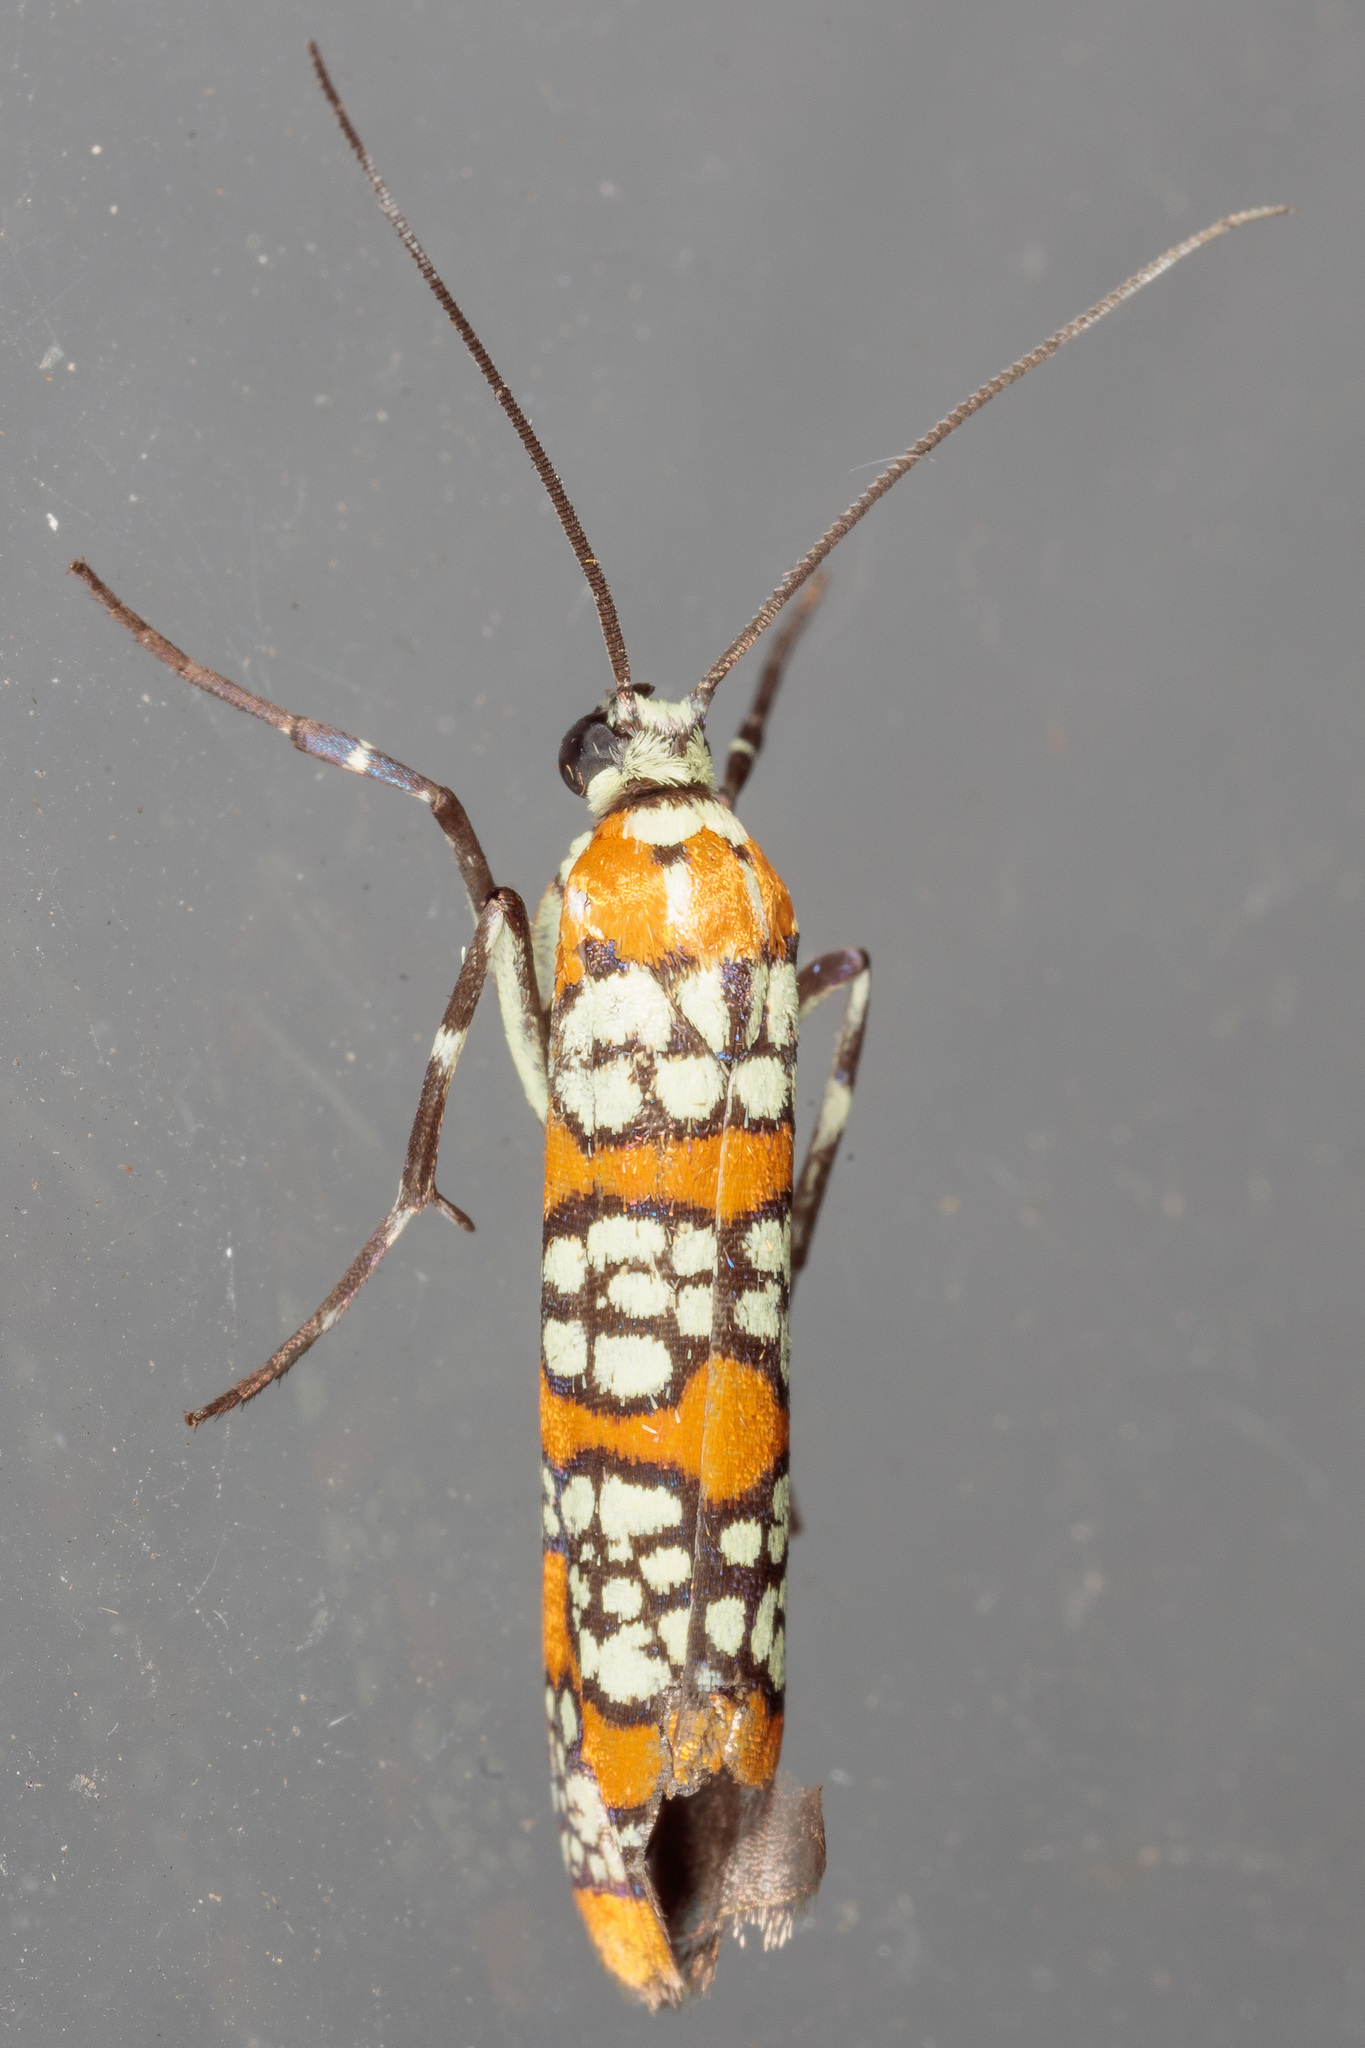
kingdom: Animalia
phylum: Arthropoda
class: Insecta
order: Lepidoptera
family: Attevidae
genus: Atteva
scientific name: Atteva punctella
